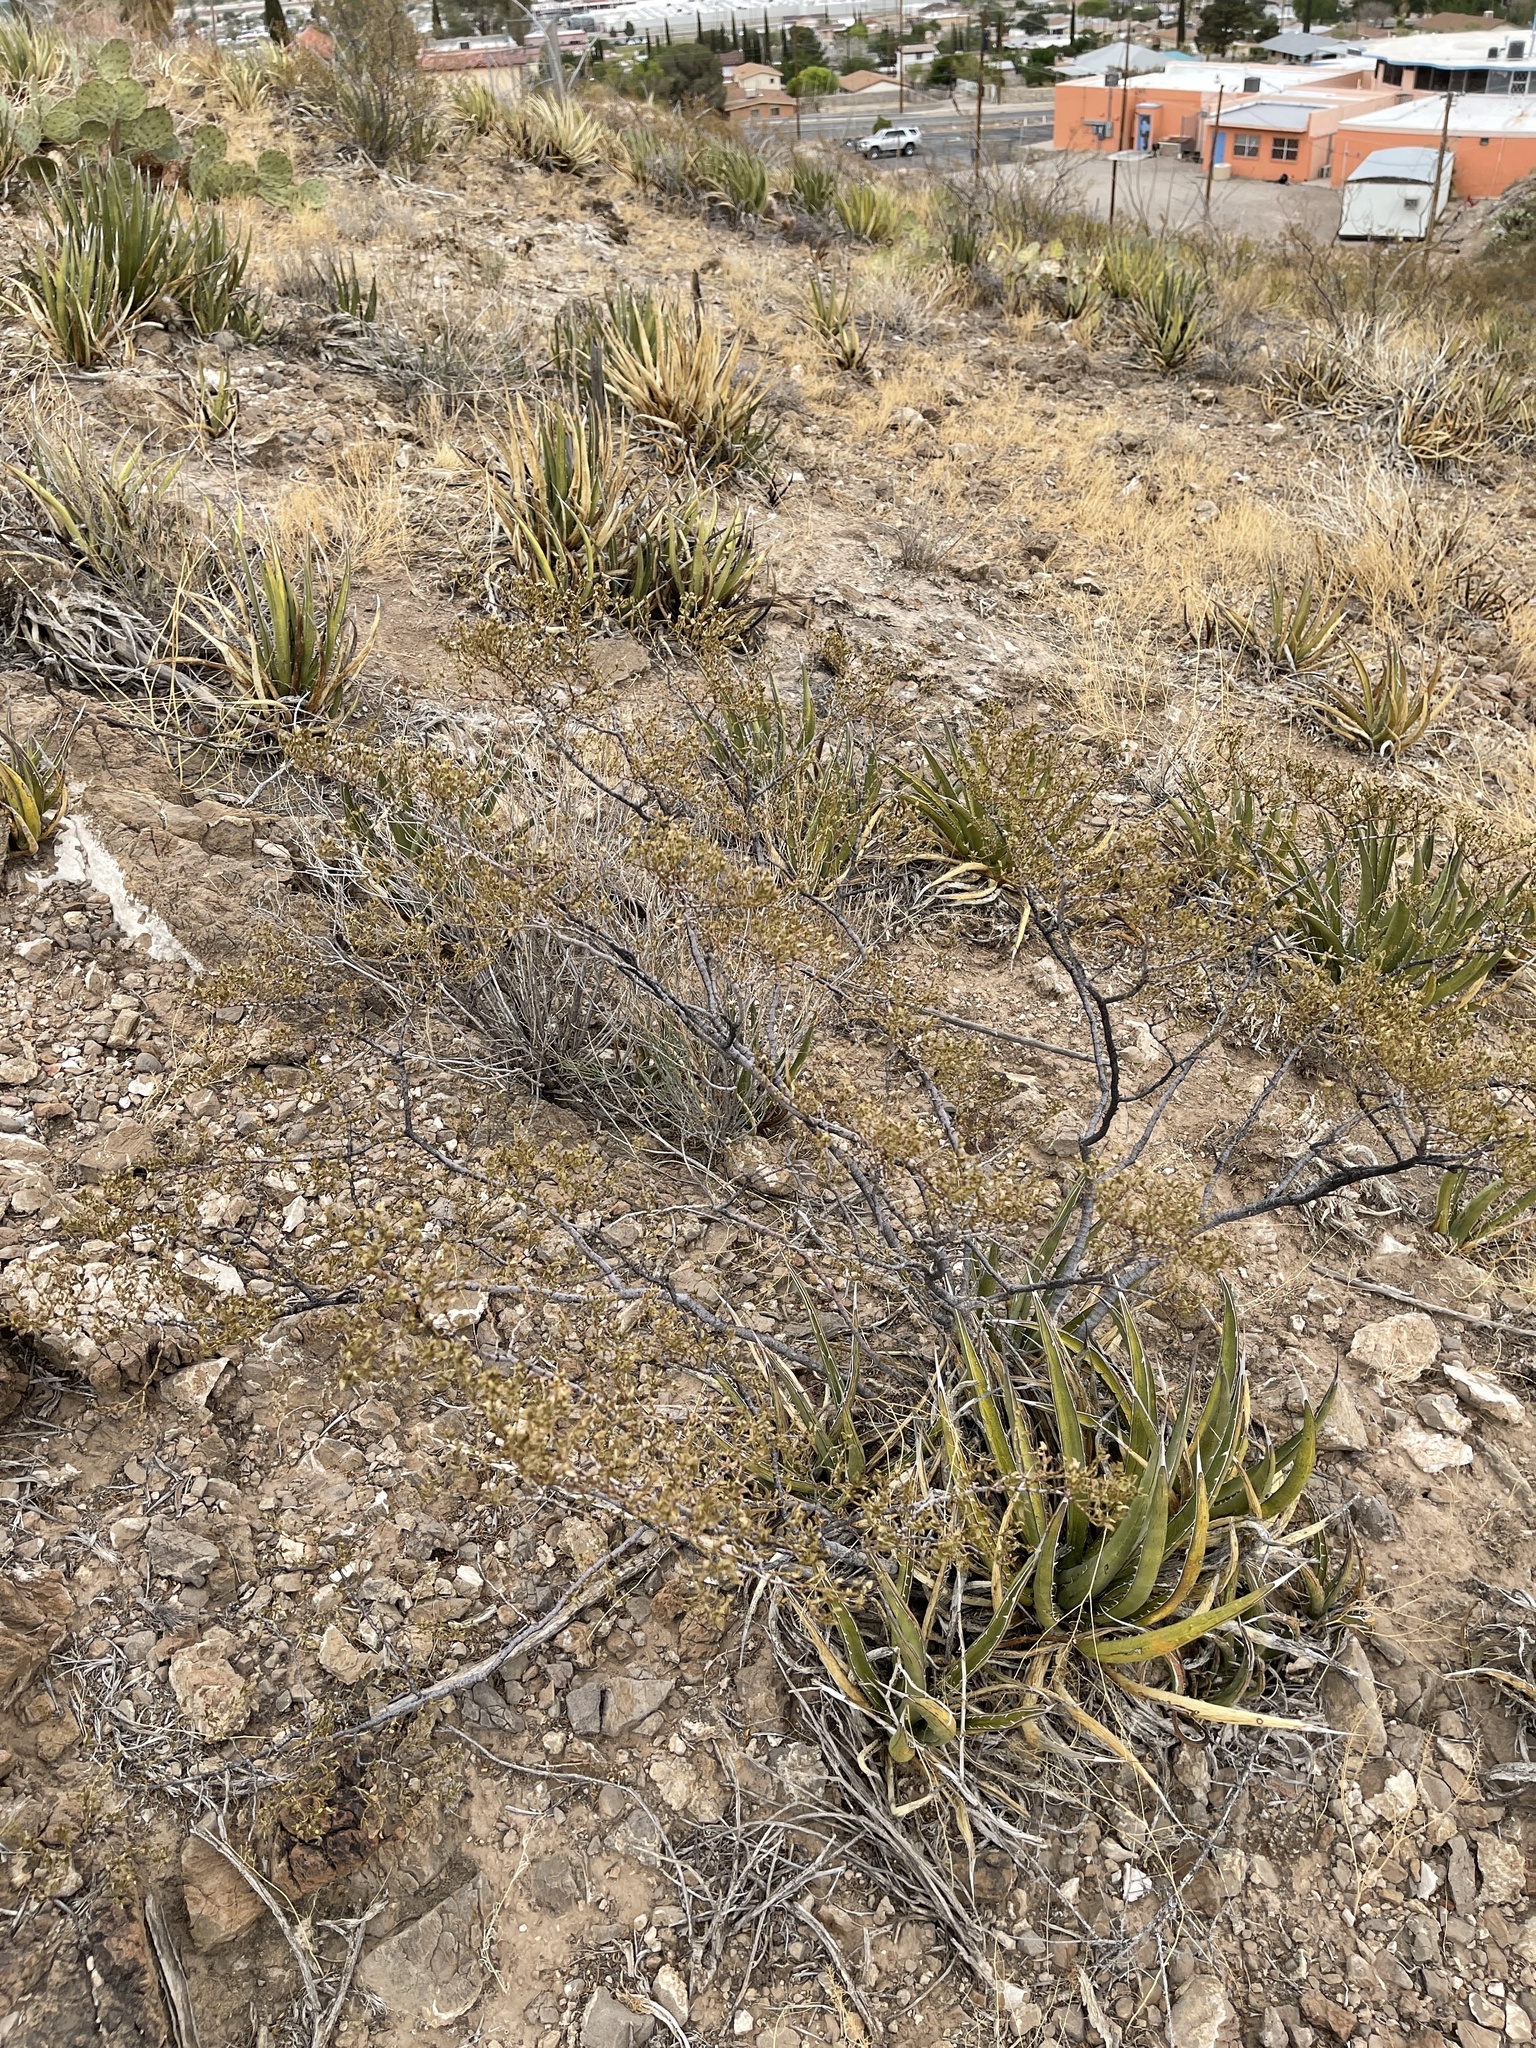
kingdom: Plantae
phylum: Tracheophyta
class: Magnoliopsida
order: Zygophyllales
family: Zygophyllaceae
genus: Larrea
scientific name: Larrea tridentata
